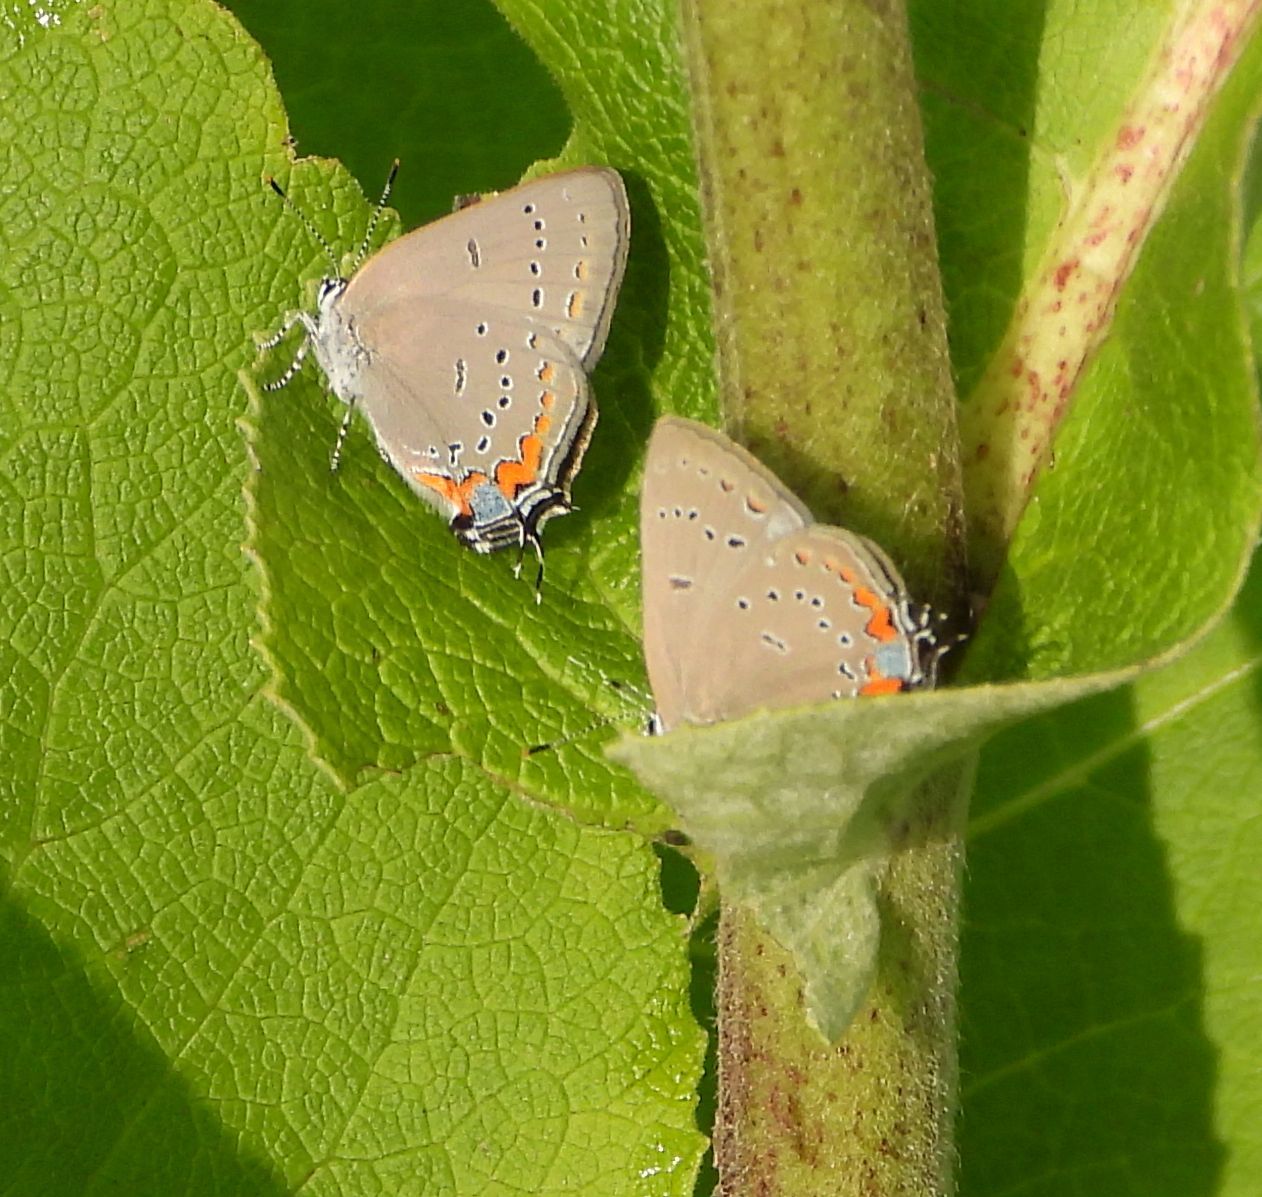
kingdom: Animalia
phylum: Arthropoda
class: Insecta
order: Lepidoptera
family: Lycaenidae
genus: Strymon
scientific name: Strymon acadica
